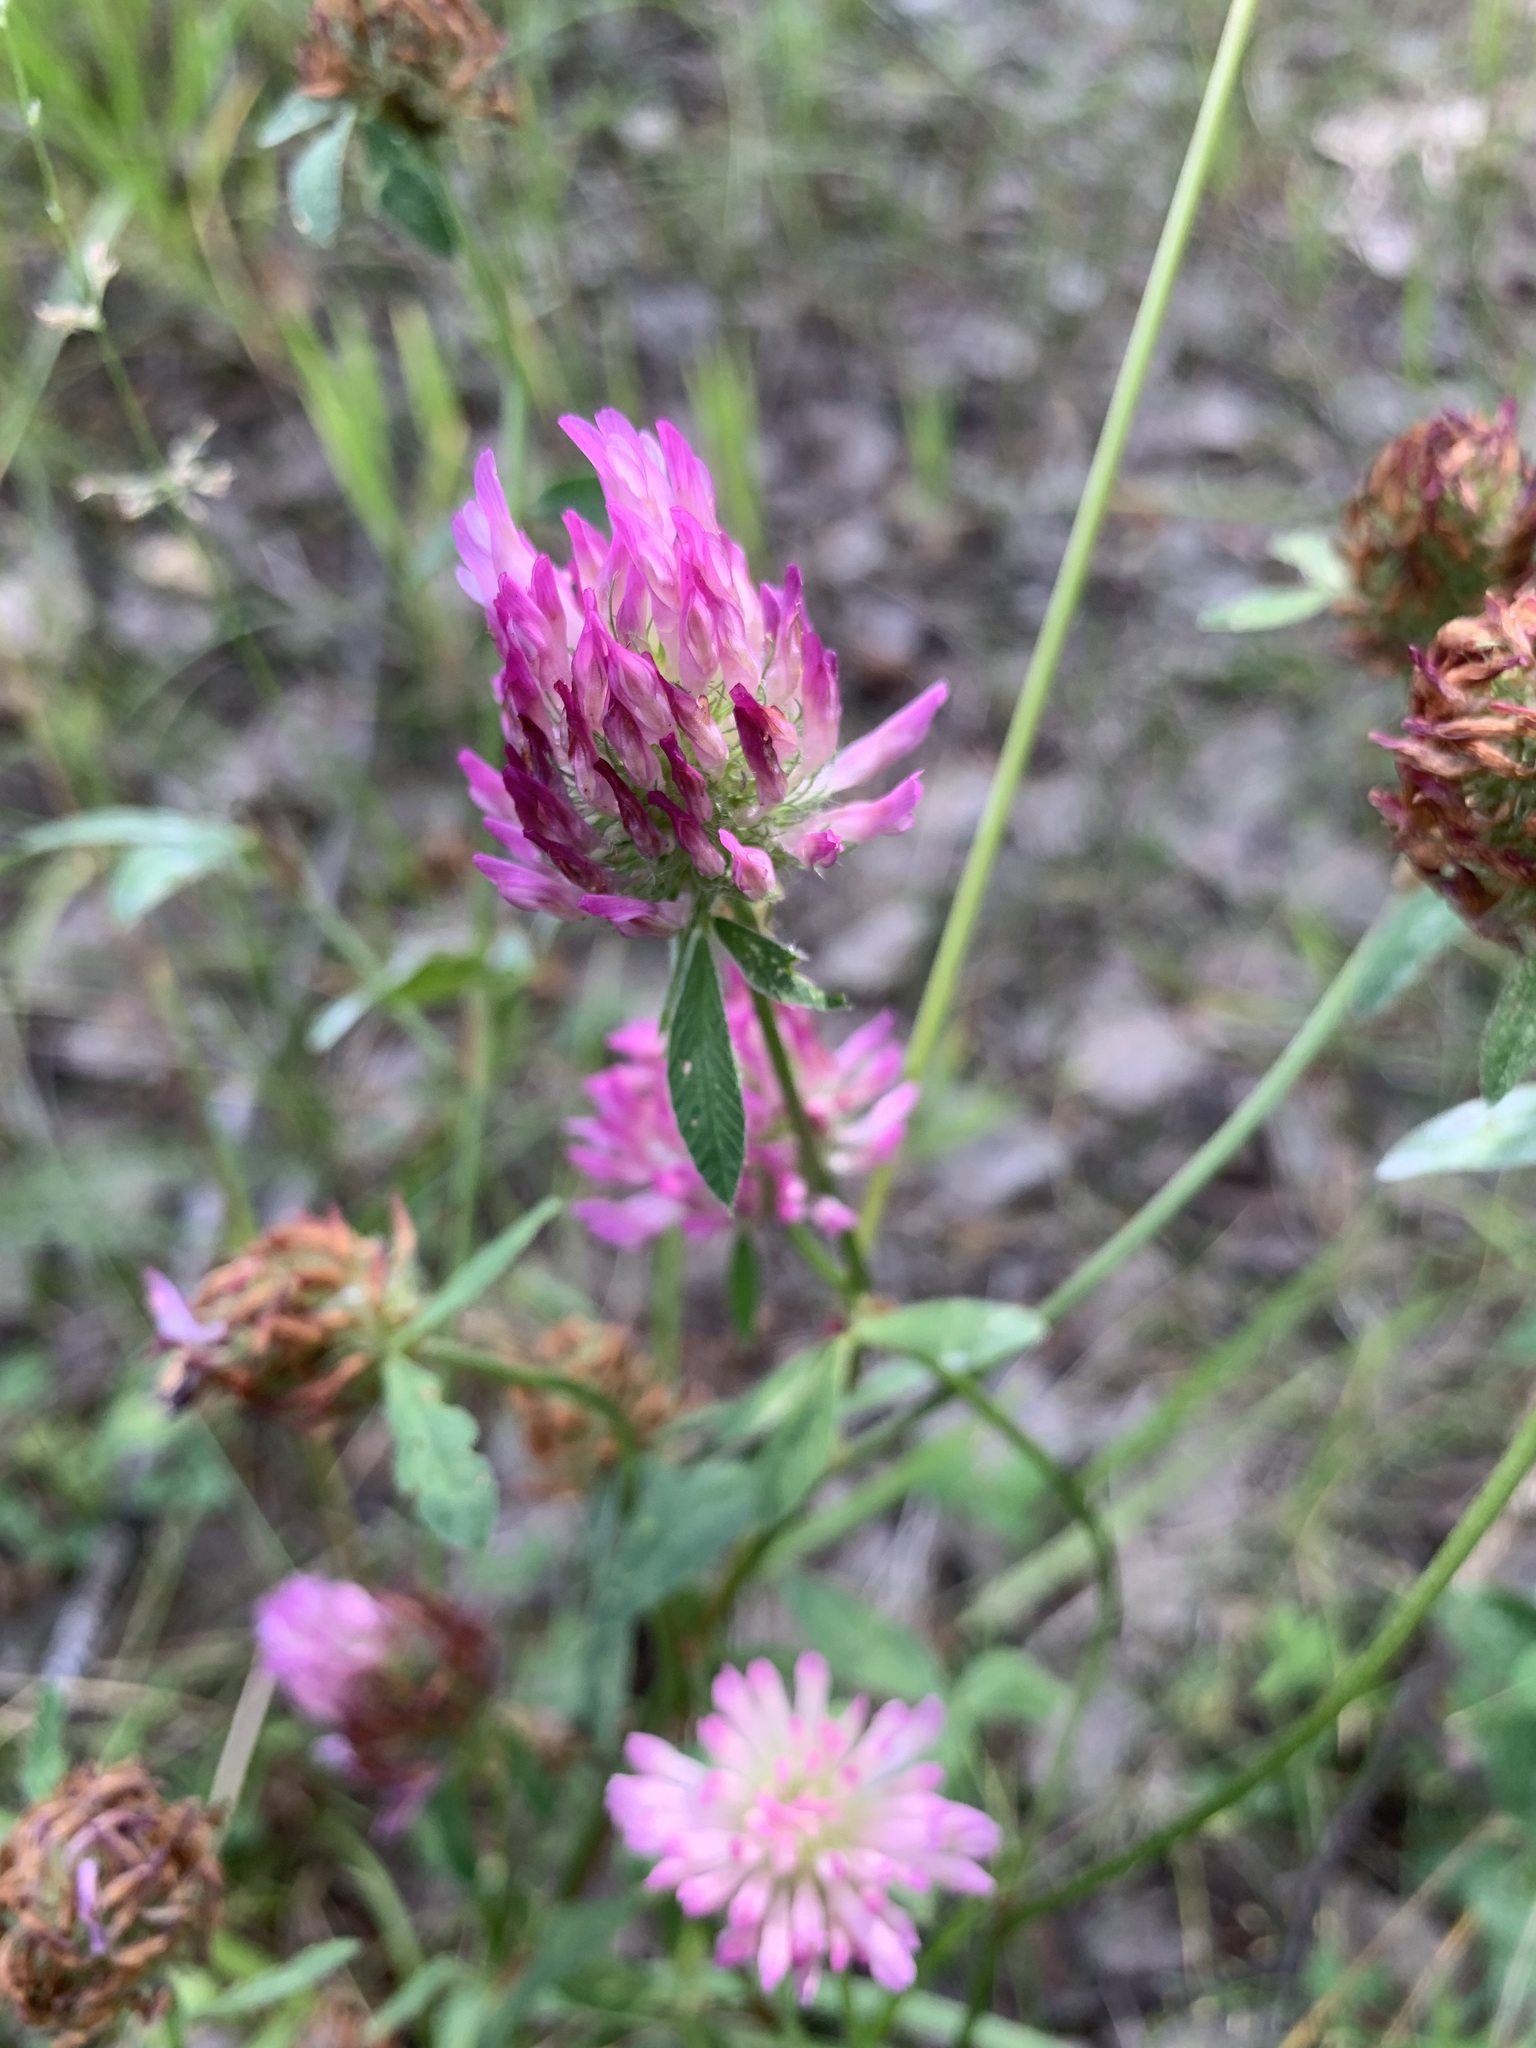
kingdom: Plantae
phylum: Tracheophyta
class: Magnoliopsida
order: Fabales
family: Fabaceae
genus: Trifolium
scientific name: Trifolium pratense
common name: Red clover
